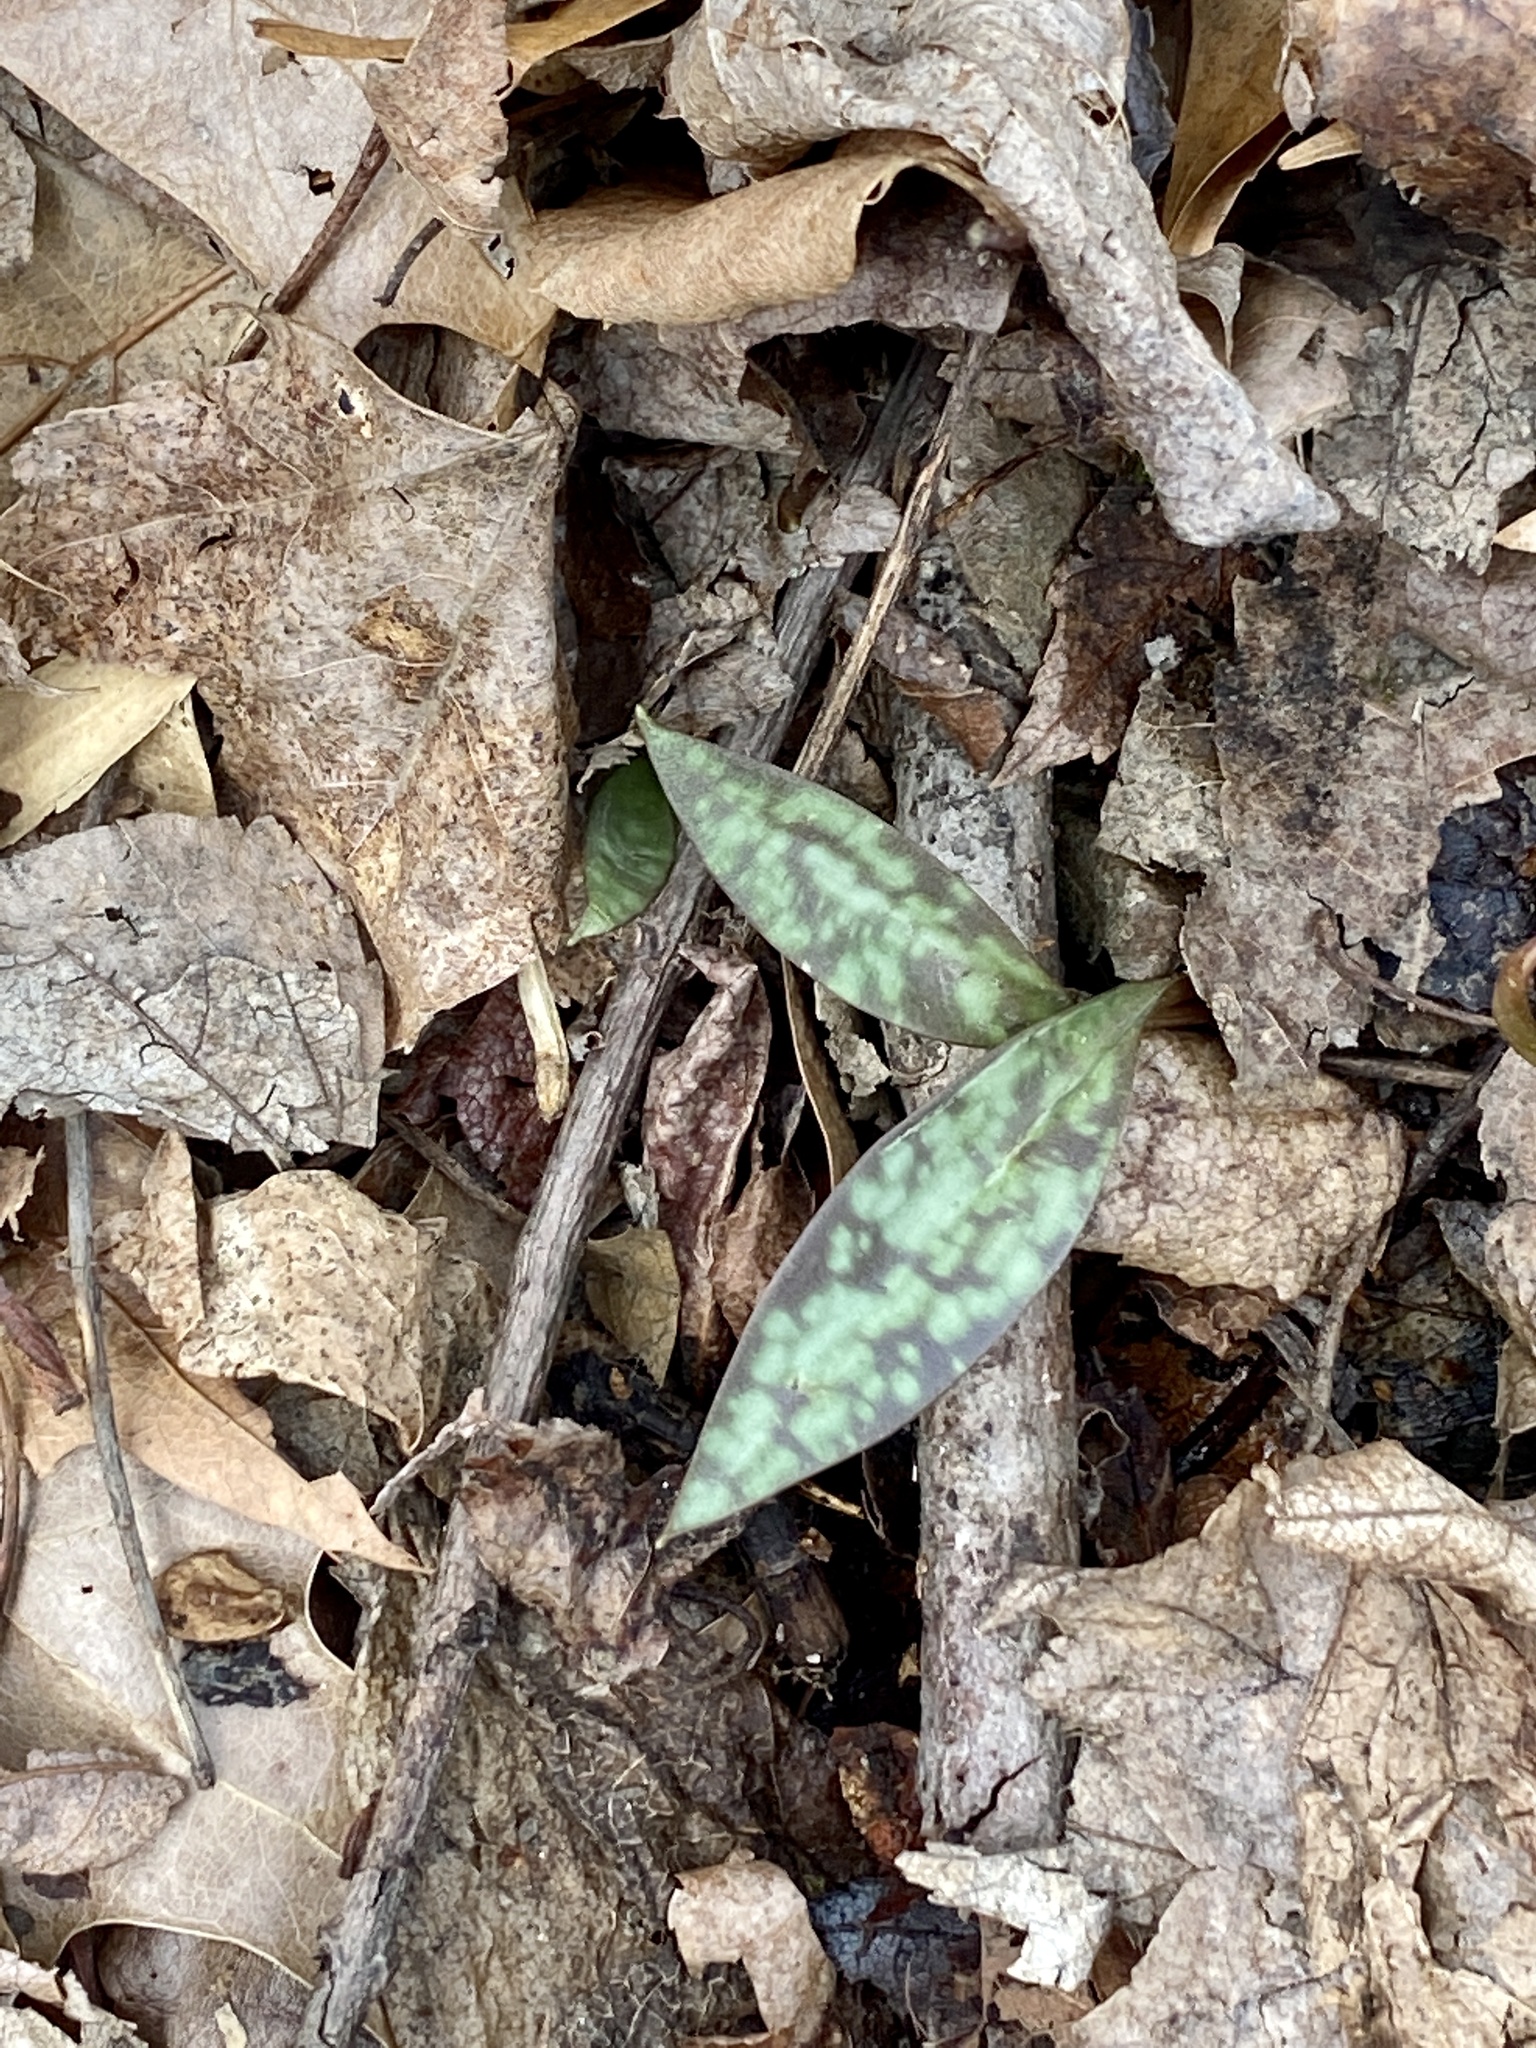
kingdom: Plantae
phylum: Tracheophyta
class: Liliopsida
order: Liliales
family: Liliaceae
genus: Erythronium
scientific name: Erythronium americanum
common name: Yellow adder's-tongue
